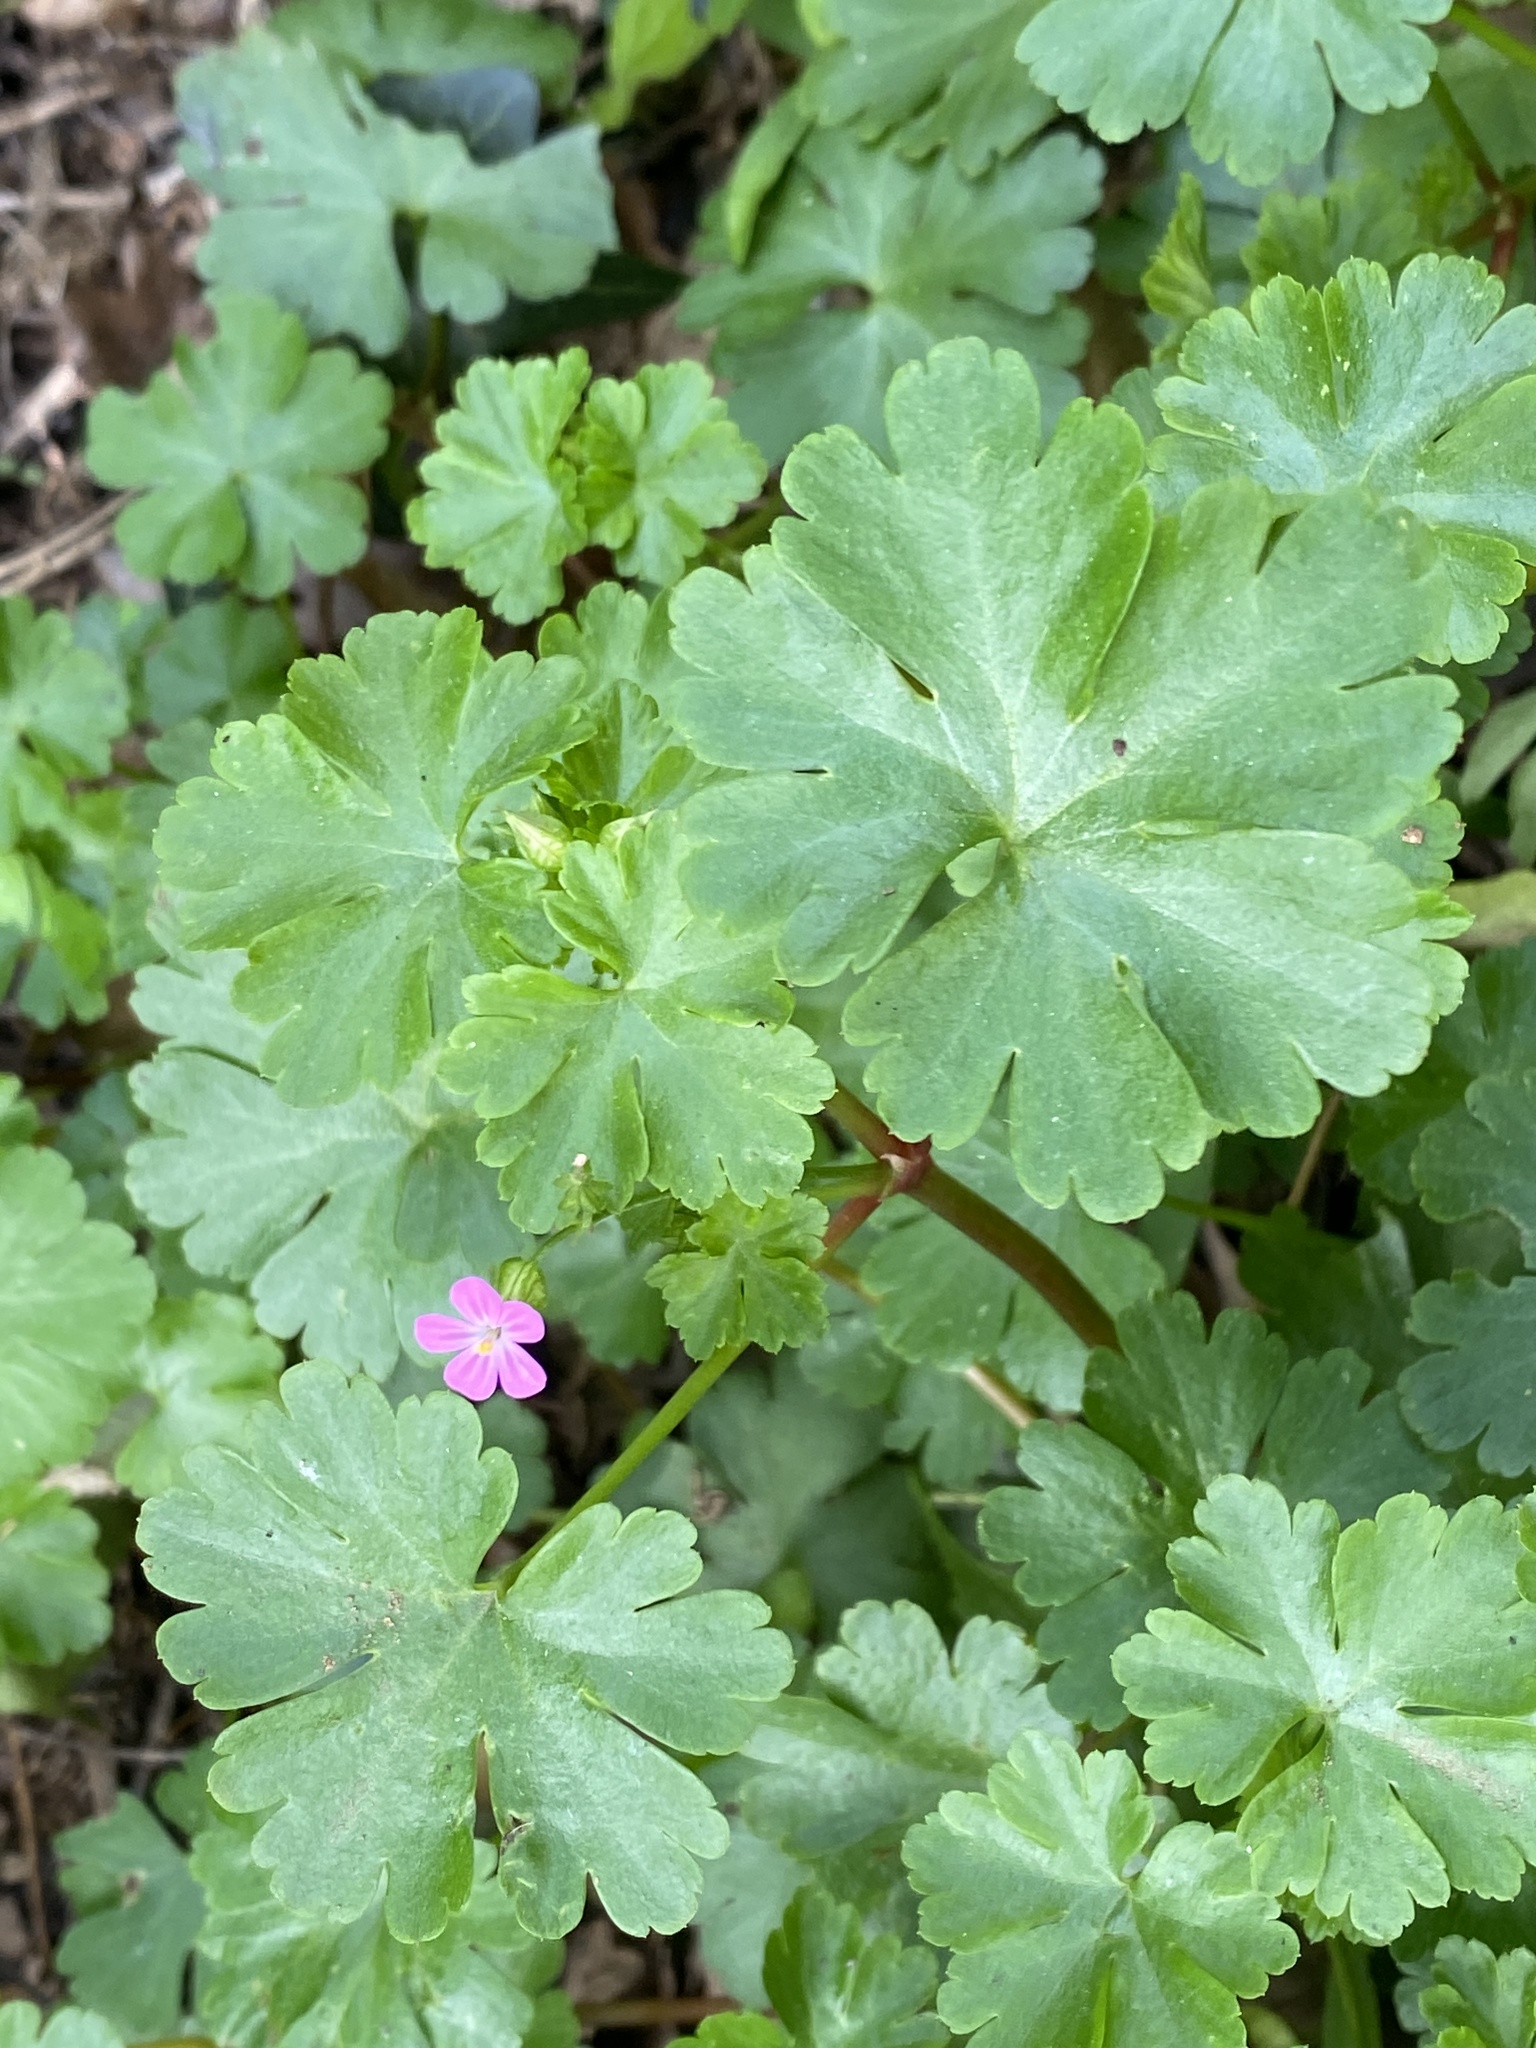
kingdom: Plantae
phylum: Tracheophyta
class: Magnoliopsida
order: Geraniales
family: Geraniaceae
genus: Geranium
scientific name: Geranium lucidum
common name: Shining crane's-bill
